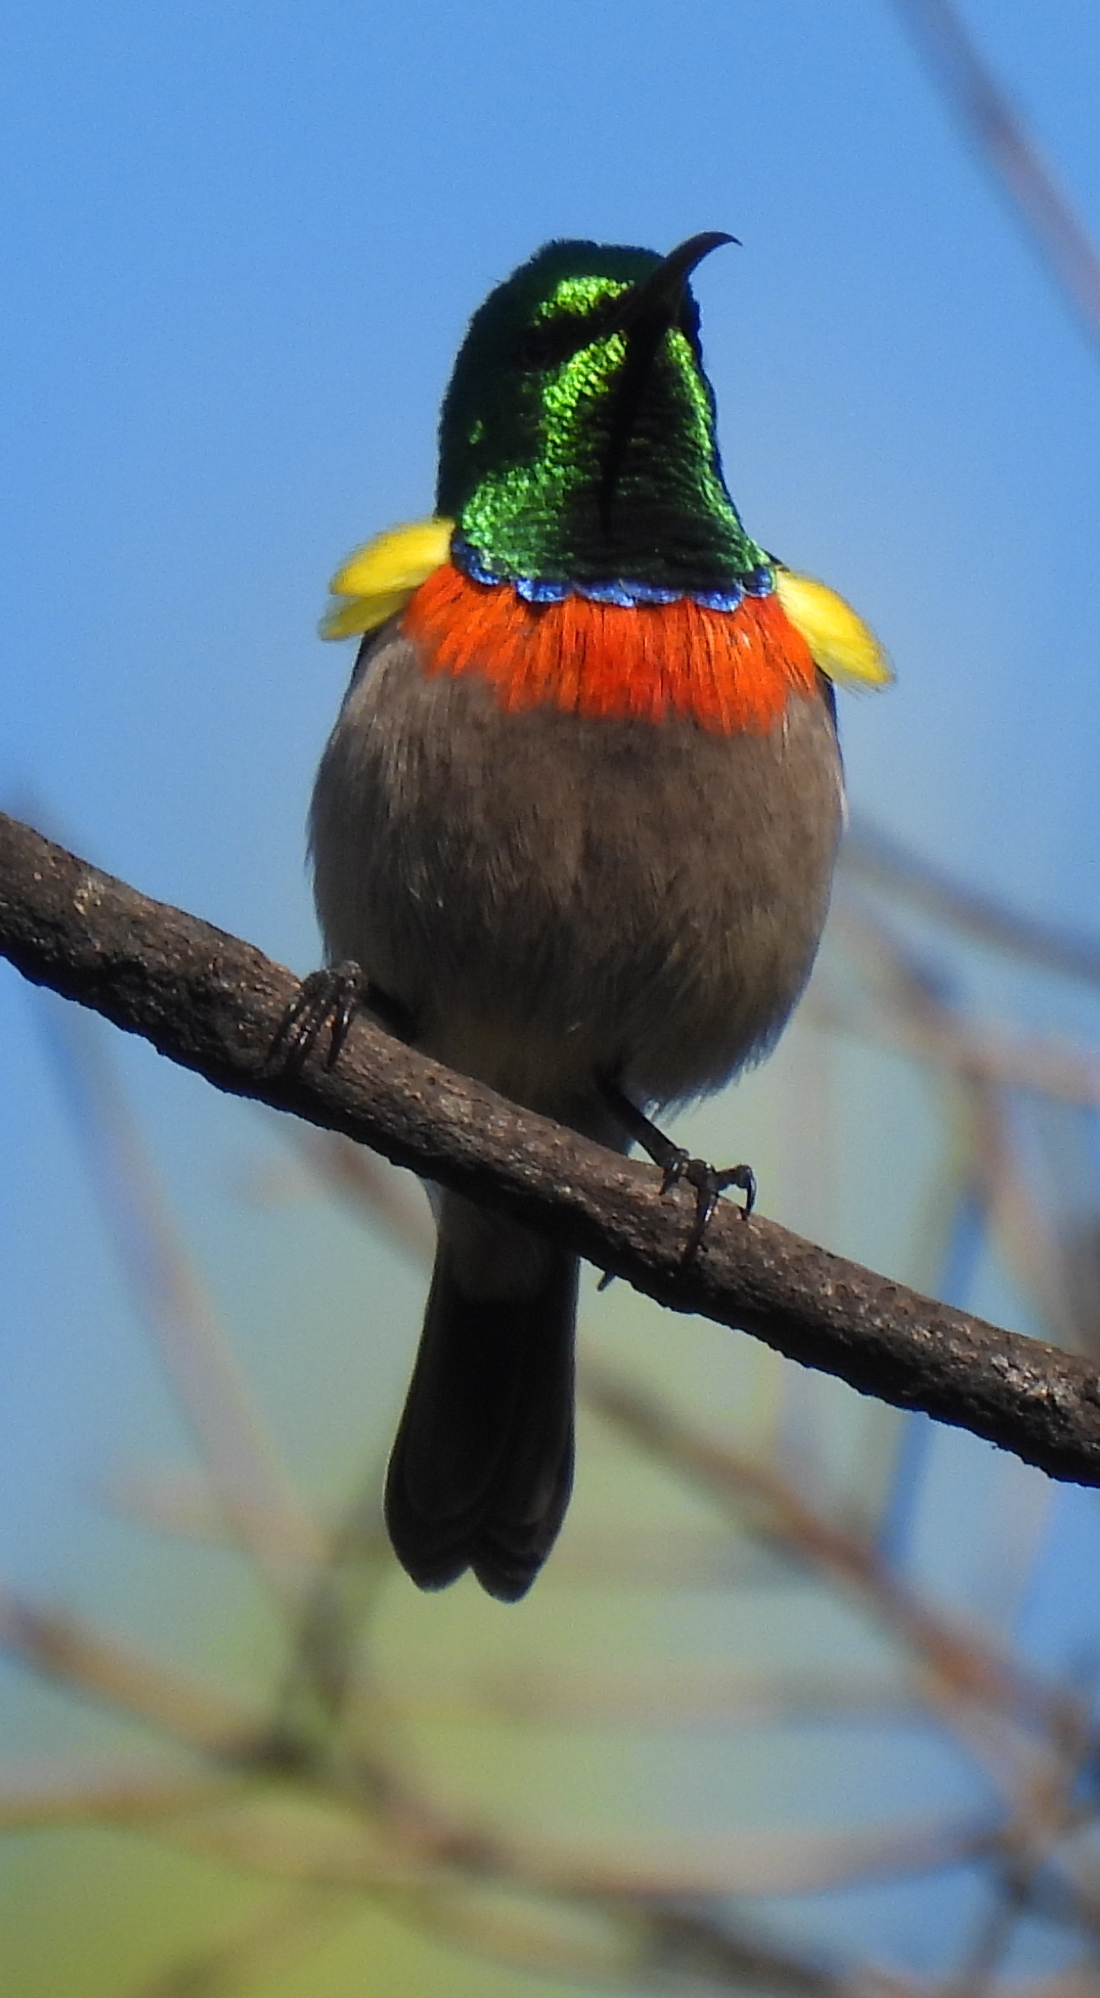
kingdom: Animalia
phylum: Chordata
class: Aves
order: Passeriformes
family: Nectariniidae
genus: Cinnyris
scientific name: Cinnyris chalybeus
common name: Southern double-collared sunbird
